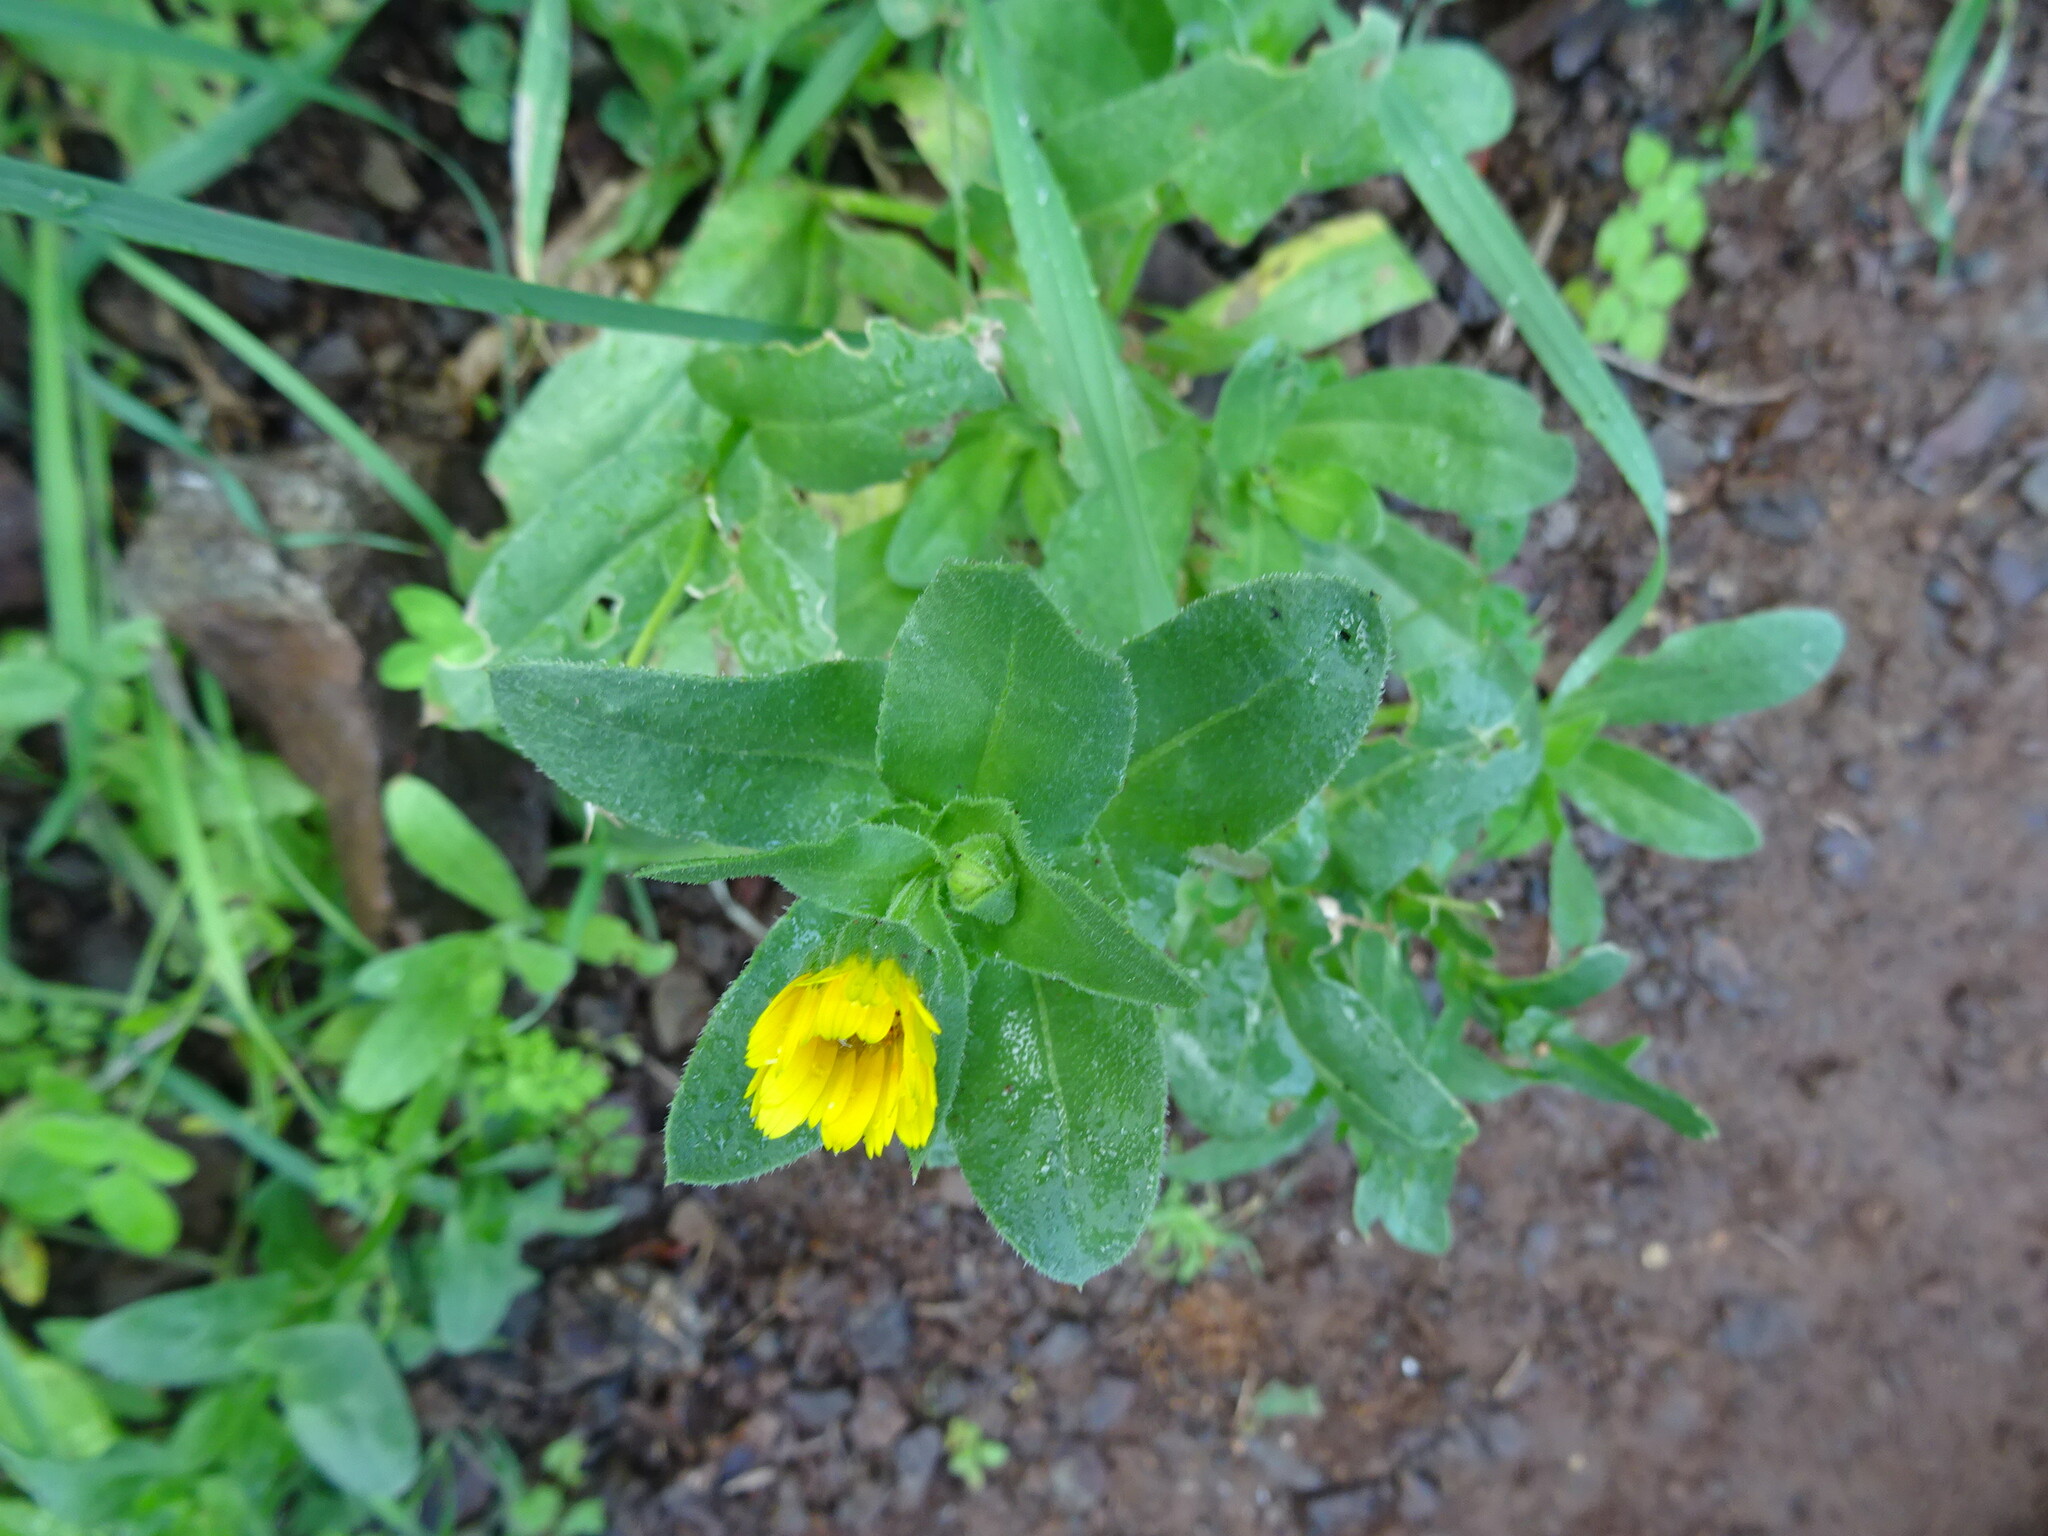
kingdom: Plantae
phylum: Tracheophyta
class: Magnoliopsida
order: Asterales
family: Asteraceae
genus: Calendula
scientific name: Calendula arvensis
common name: Field marigold
